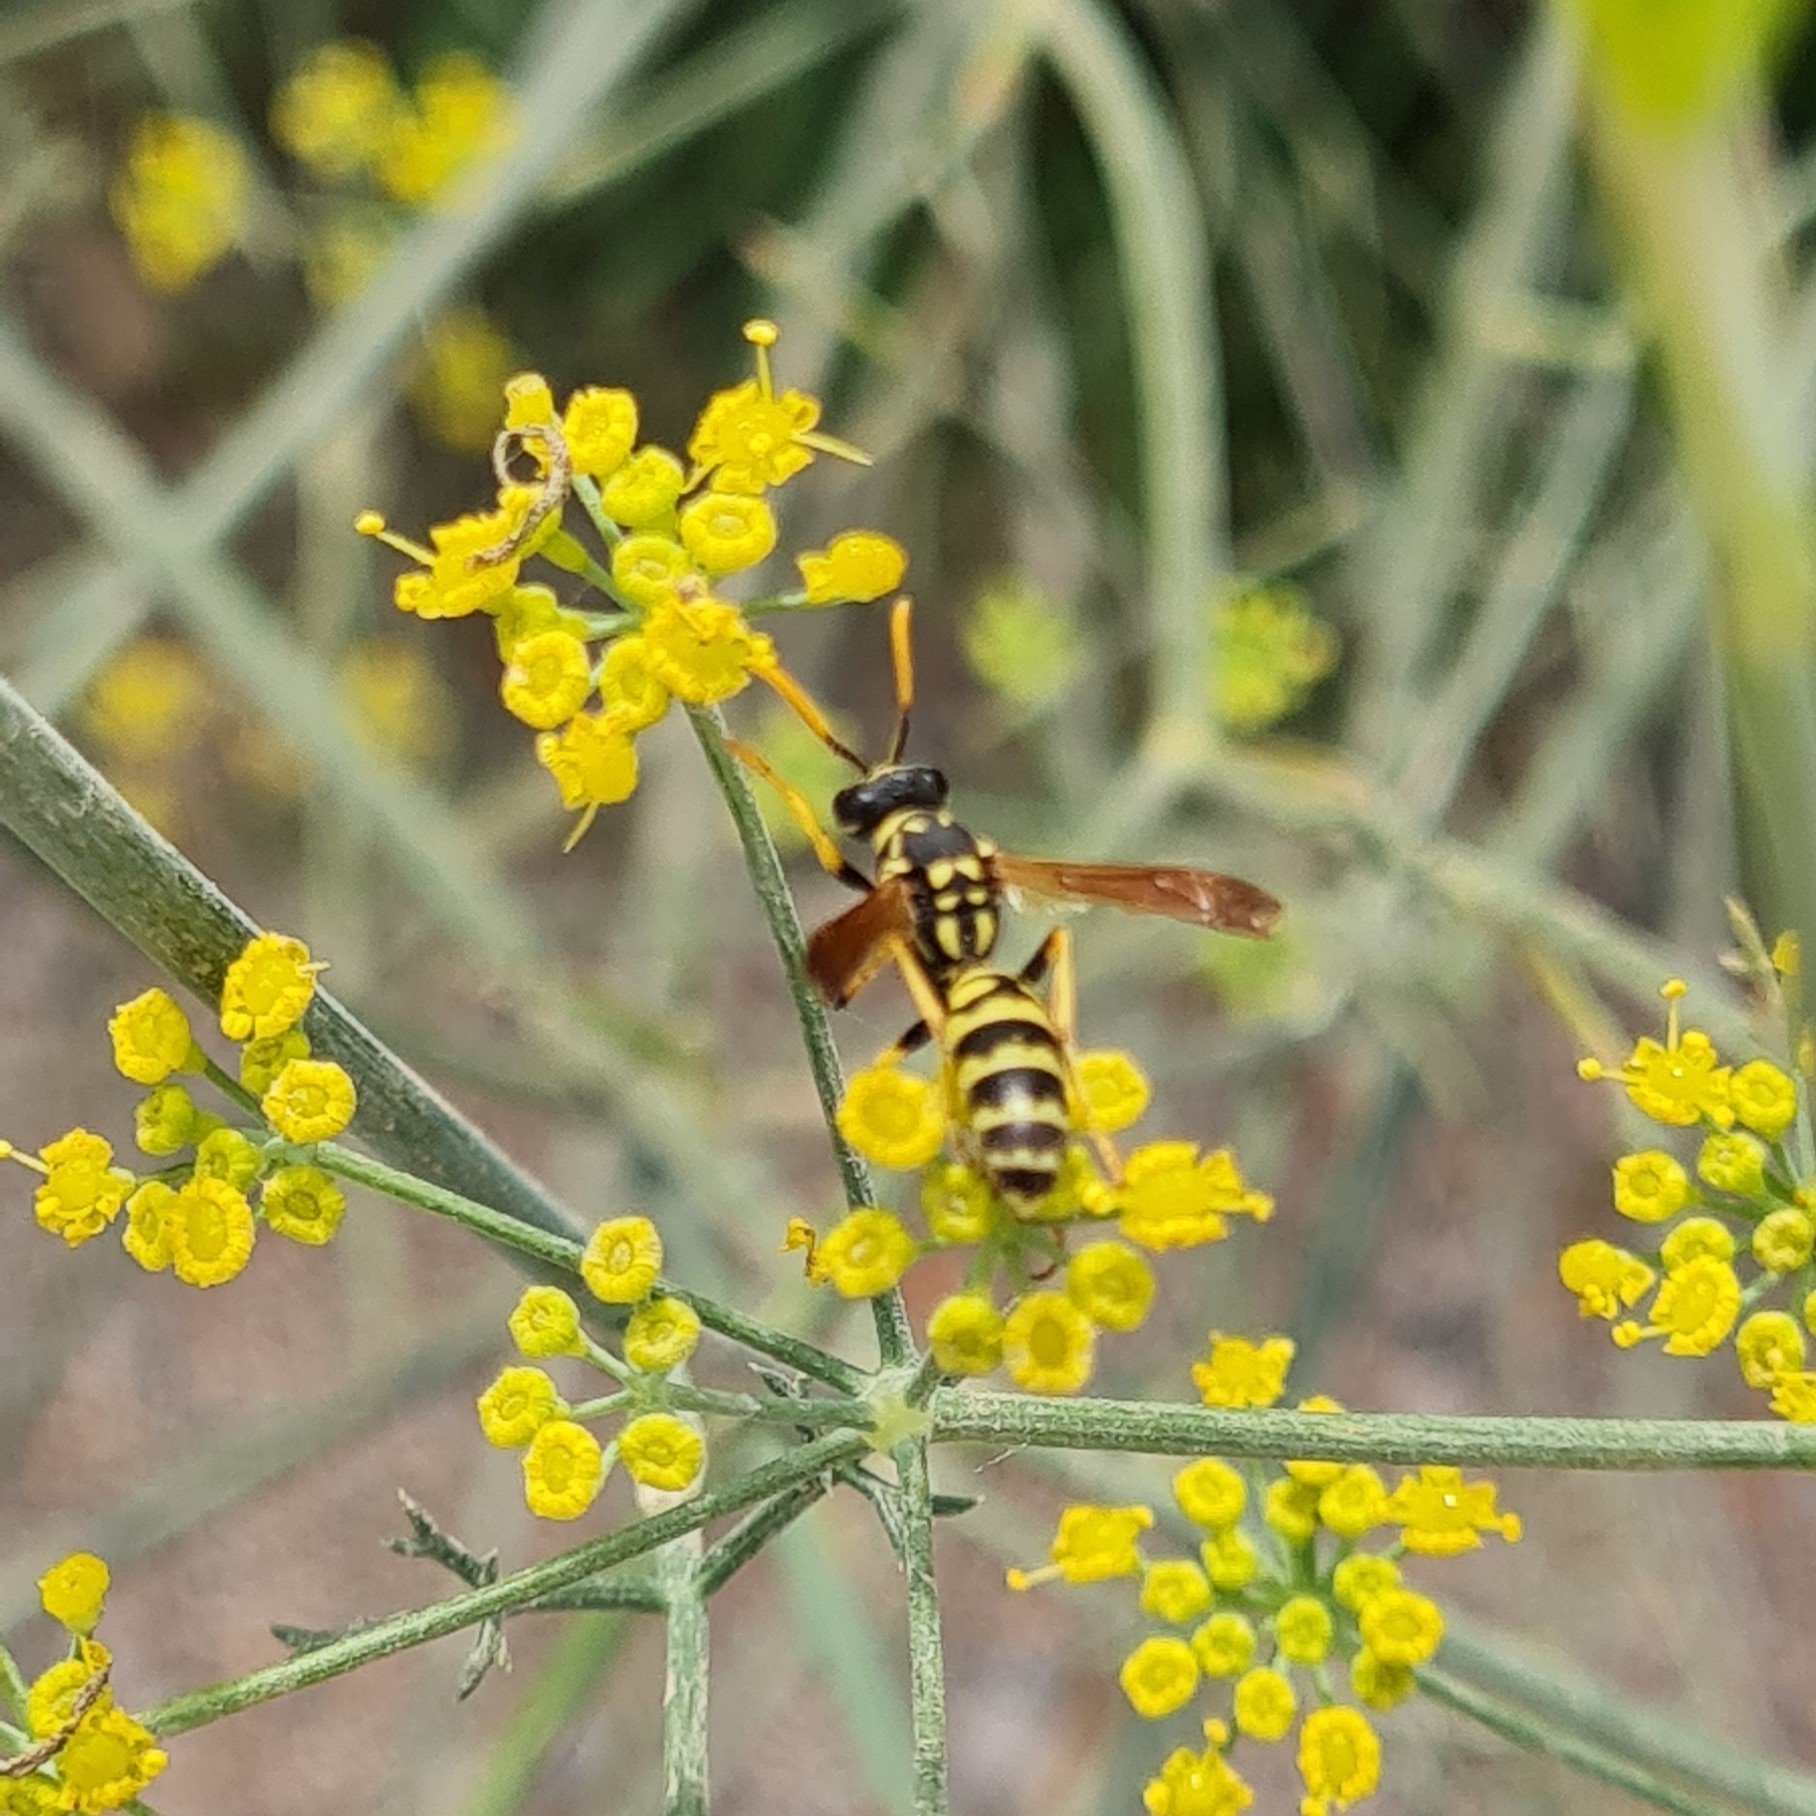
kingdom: Plantae
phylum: Tracheophyta
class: Magnoliopsida
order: Apiales
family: Apiaceae
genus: Foeniculum
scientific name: Foeniculum vulgare
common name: Fennel
